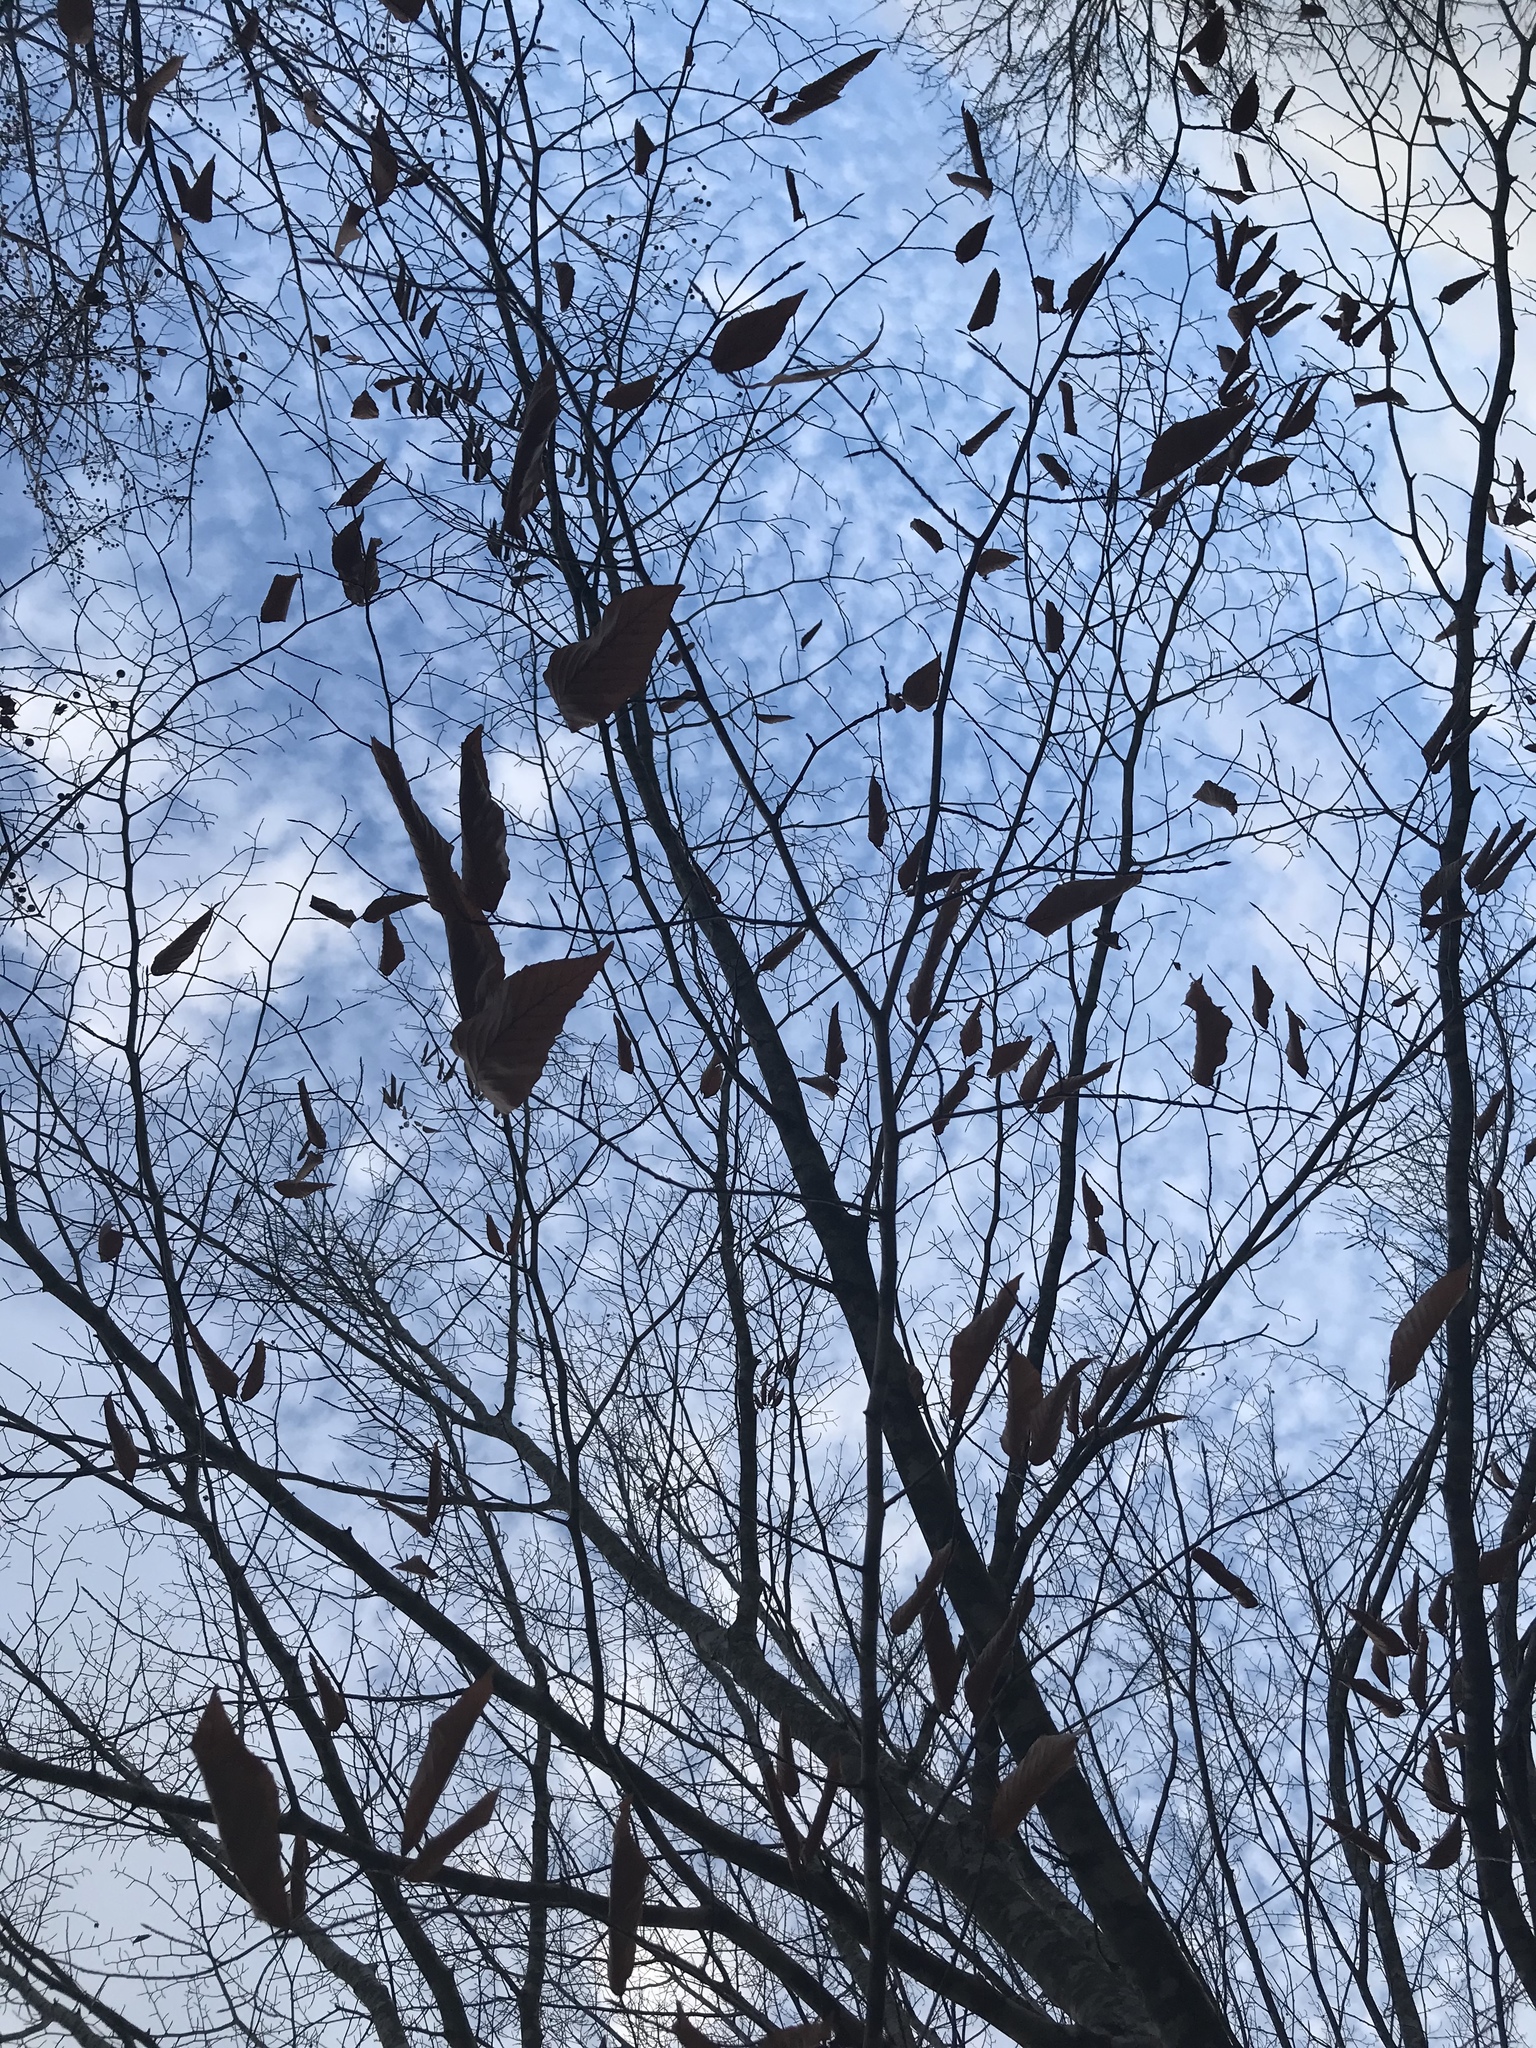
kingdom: Plantae
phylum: Tracheophyta
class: Magnoliopsida
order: Fagales
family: Fagaceae
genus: Fagus
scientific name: Fagus grandifolia
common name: American beech
